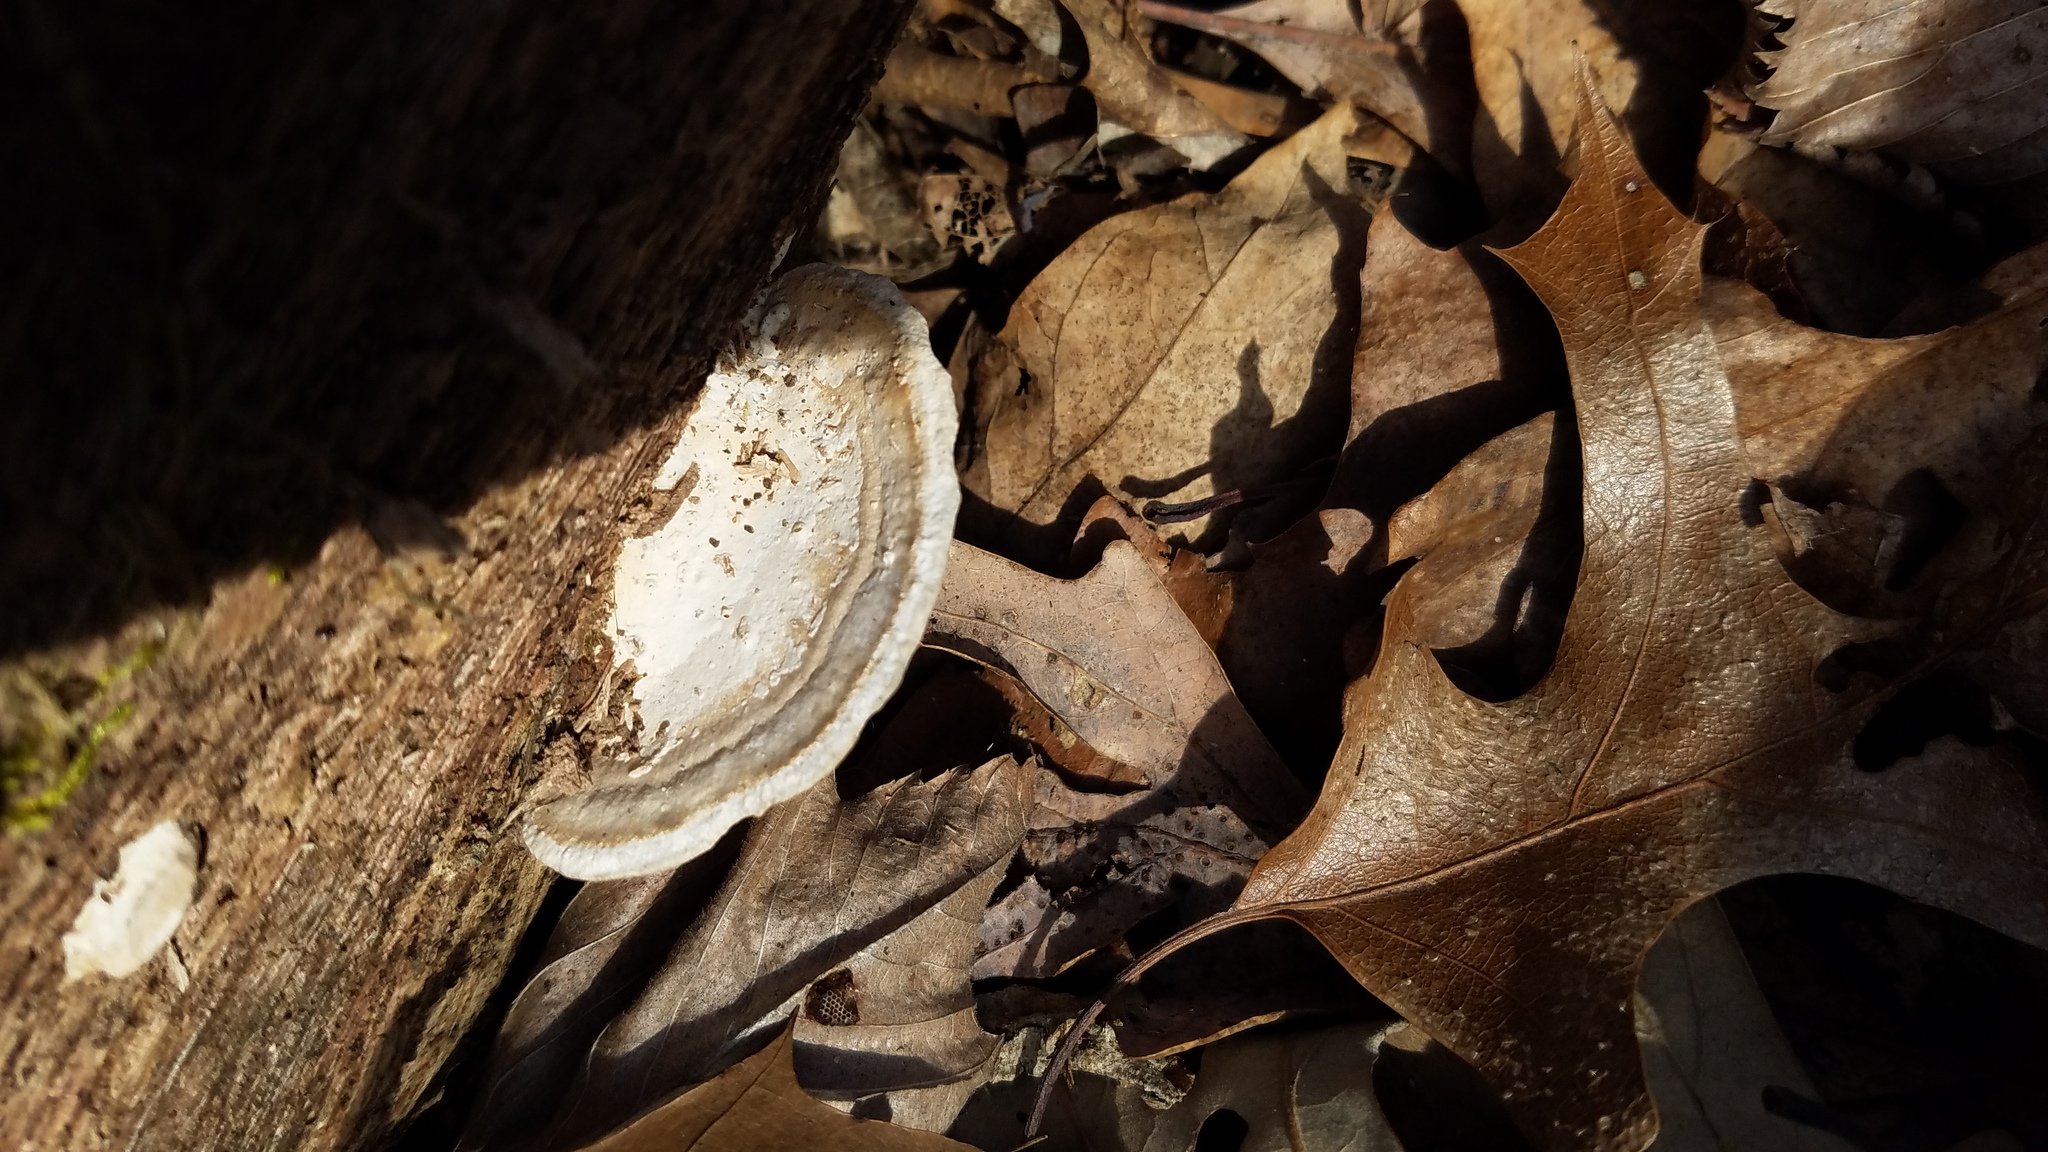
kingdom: Fungi
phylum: Basidiomycota
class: Agaricomycetes
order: Polyporales
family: Fomitopsidaceae
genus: Fomitopsis
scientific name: Fomitopsis
